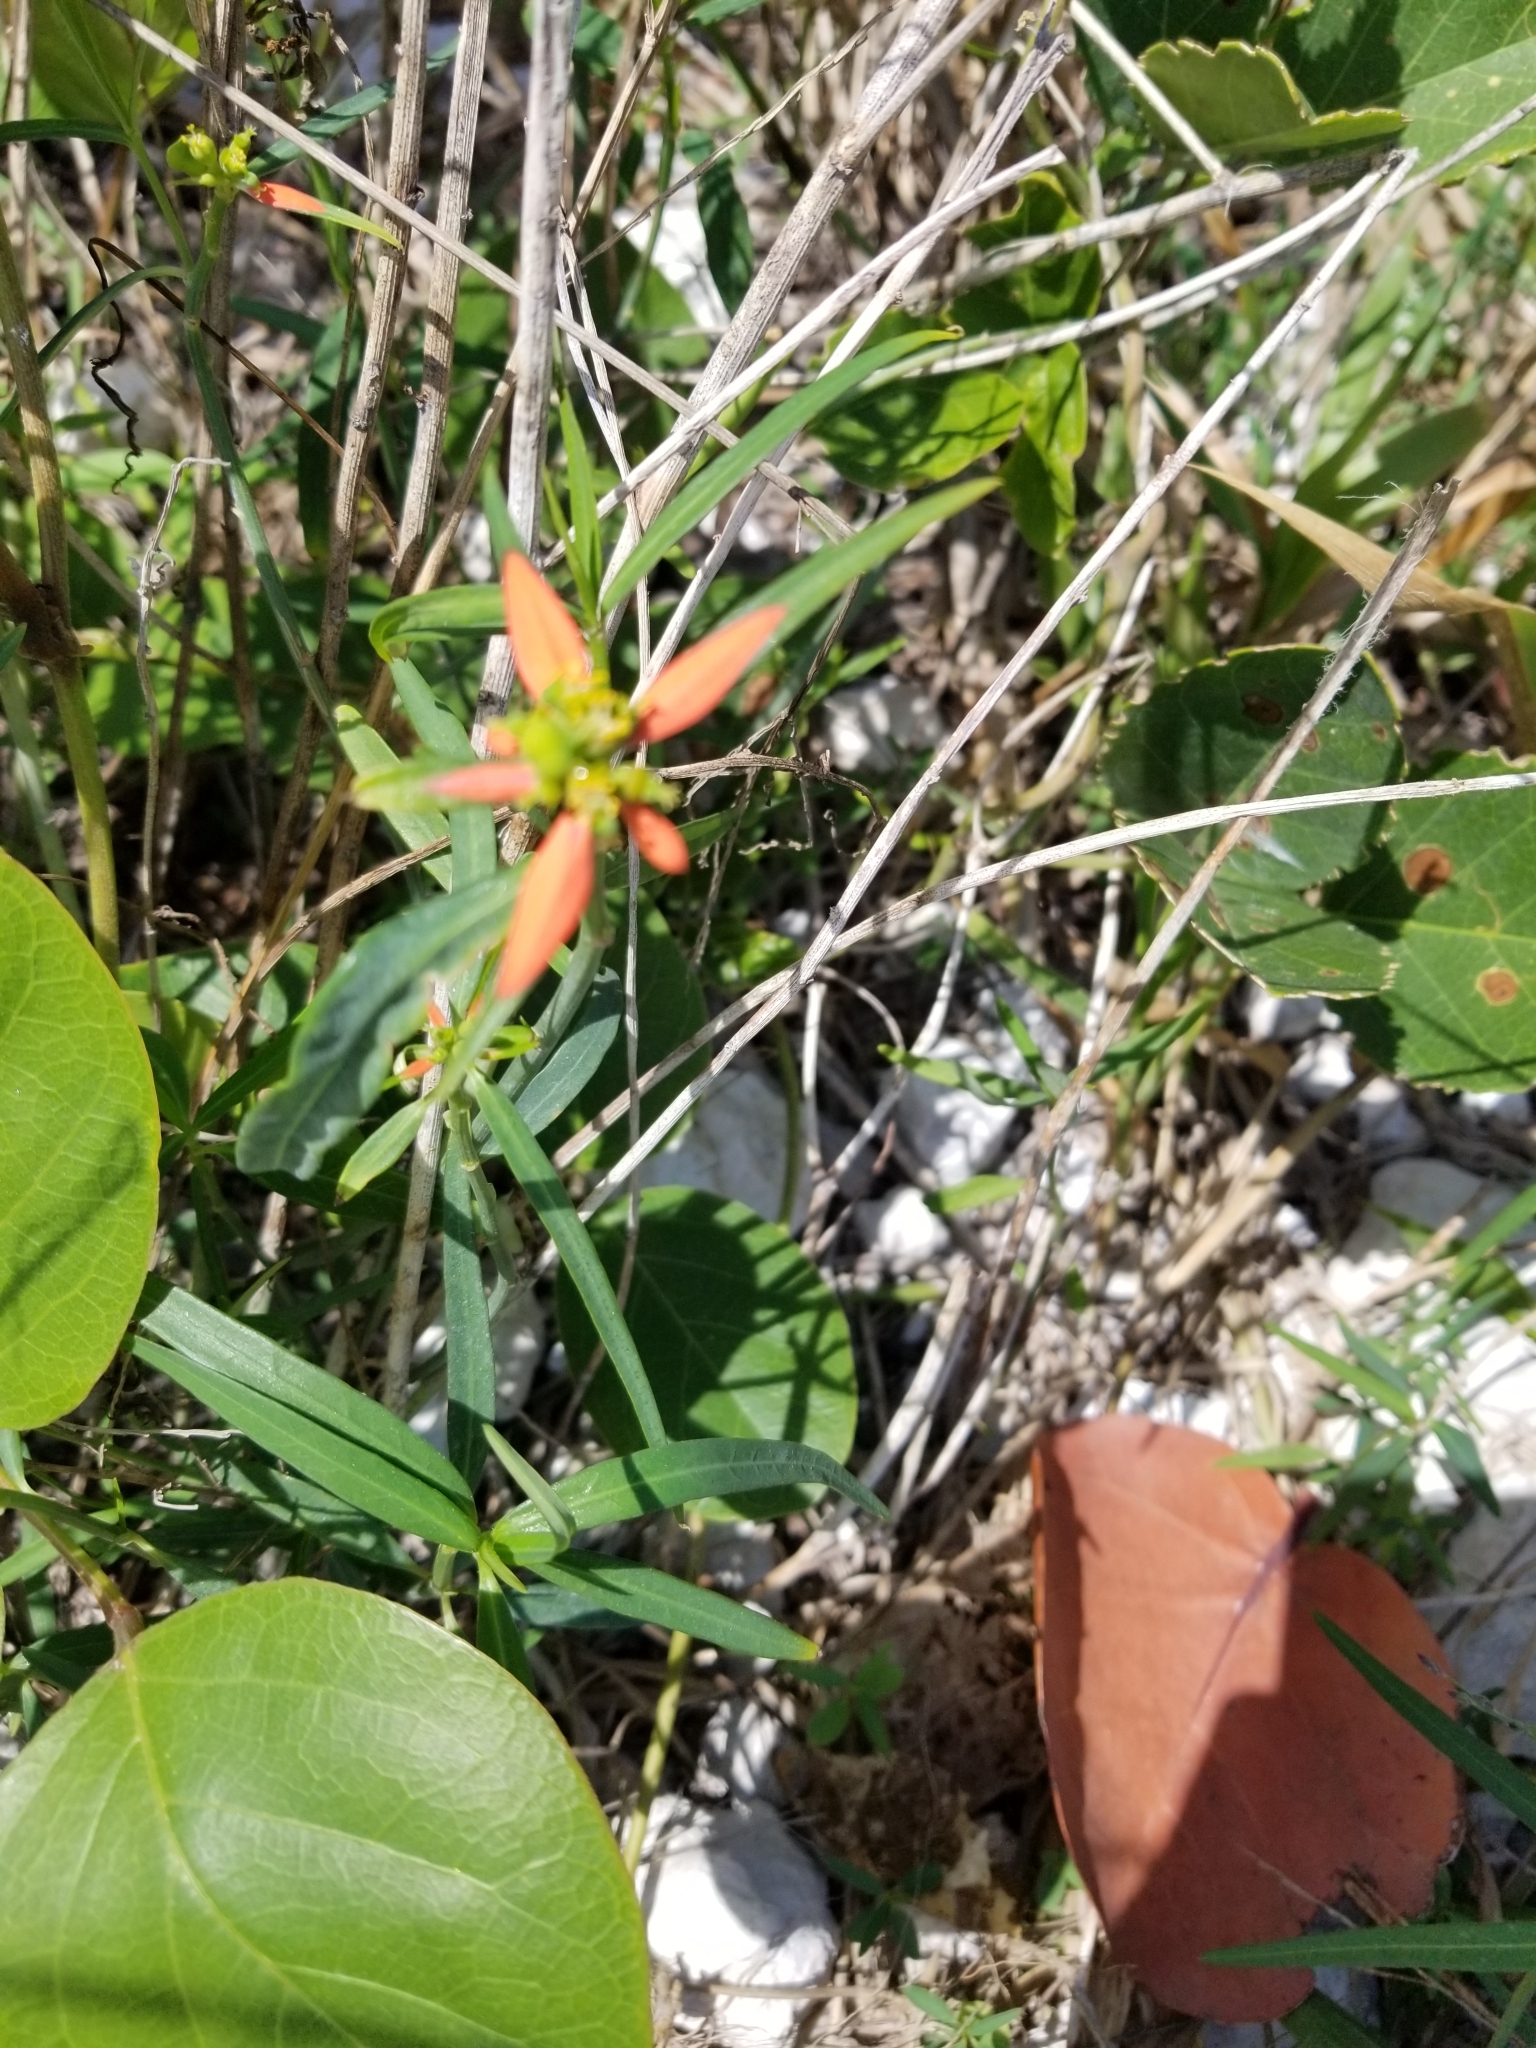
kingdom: Plantae
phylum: Tracheophyta
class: Magnoliopsida
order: Malpighiales
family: Euphorbiaceae
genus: Euphorbia
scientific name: Euphorbia heterophylla
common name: Mexican fireplant
